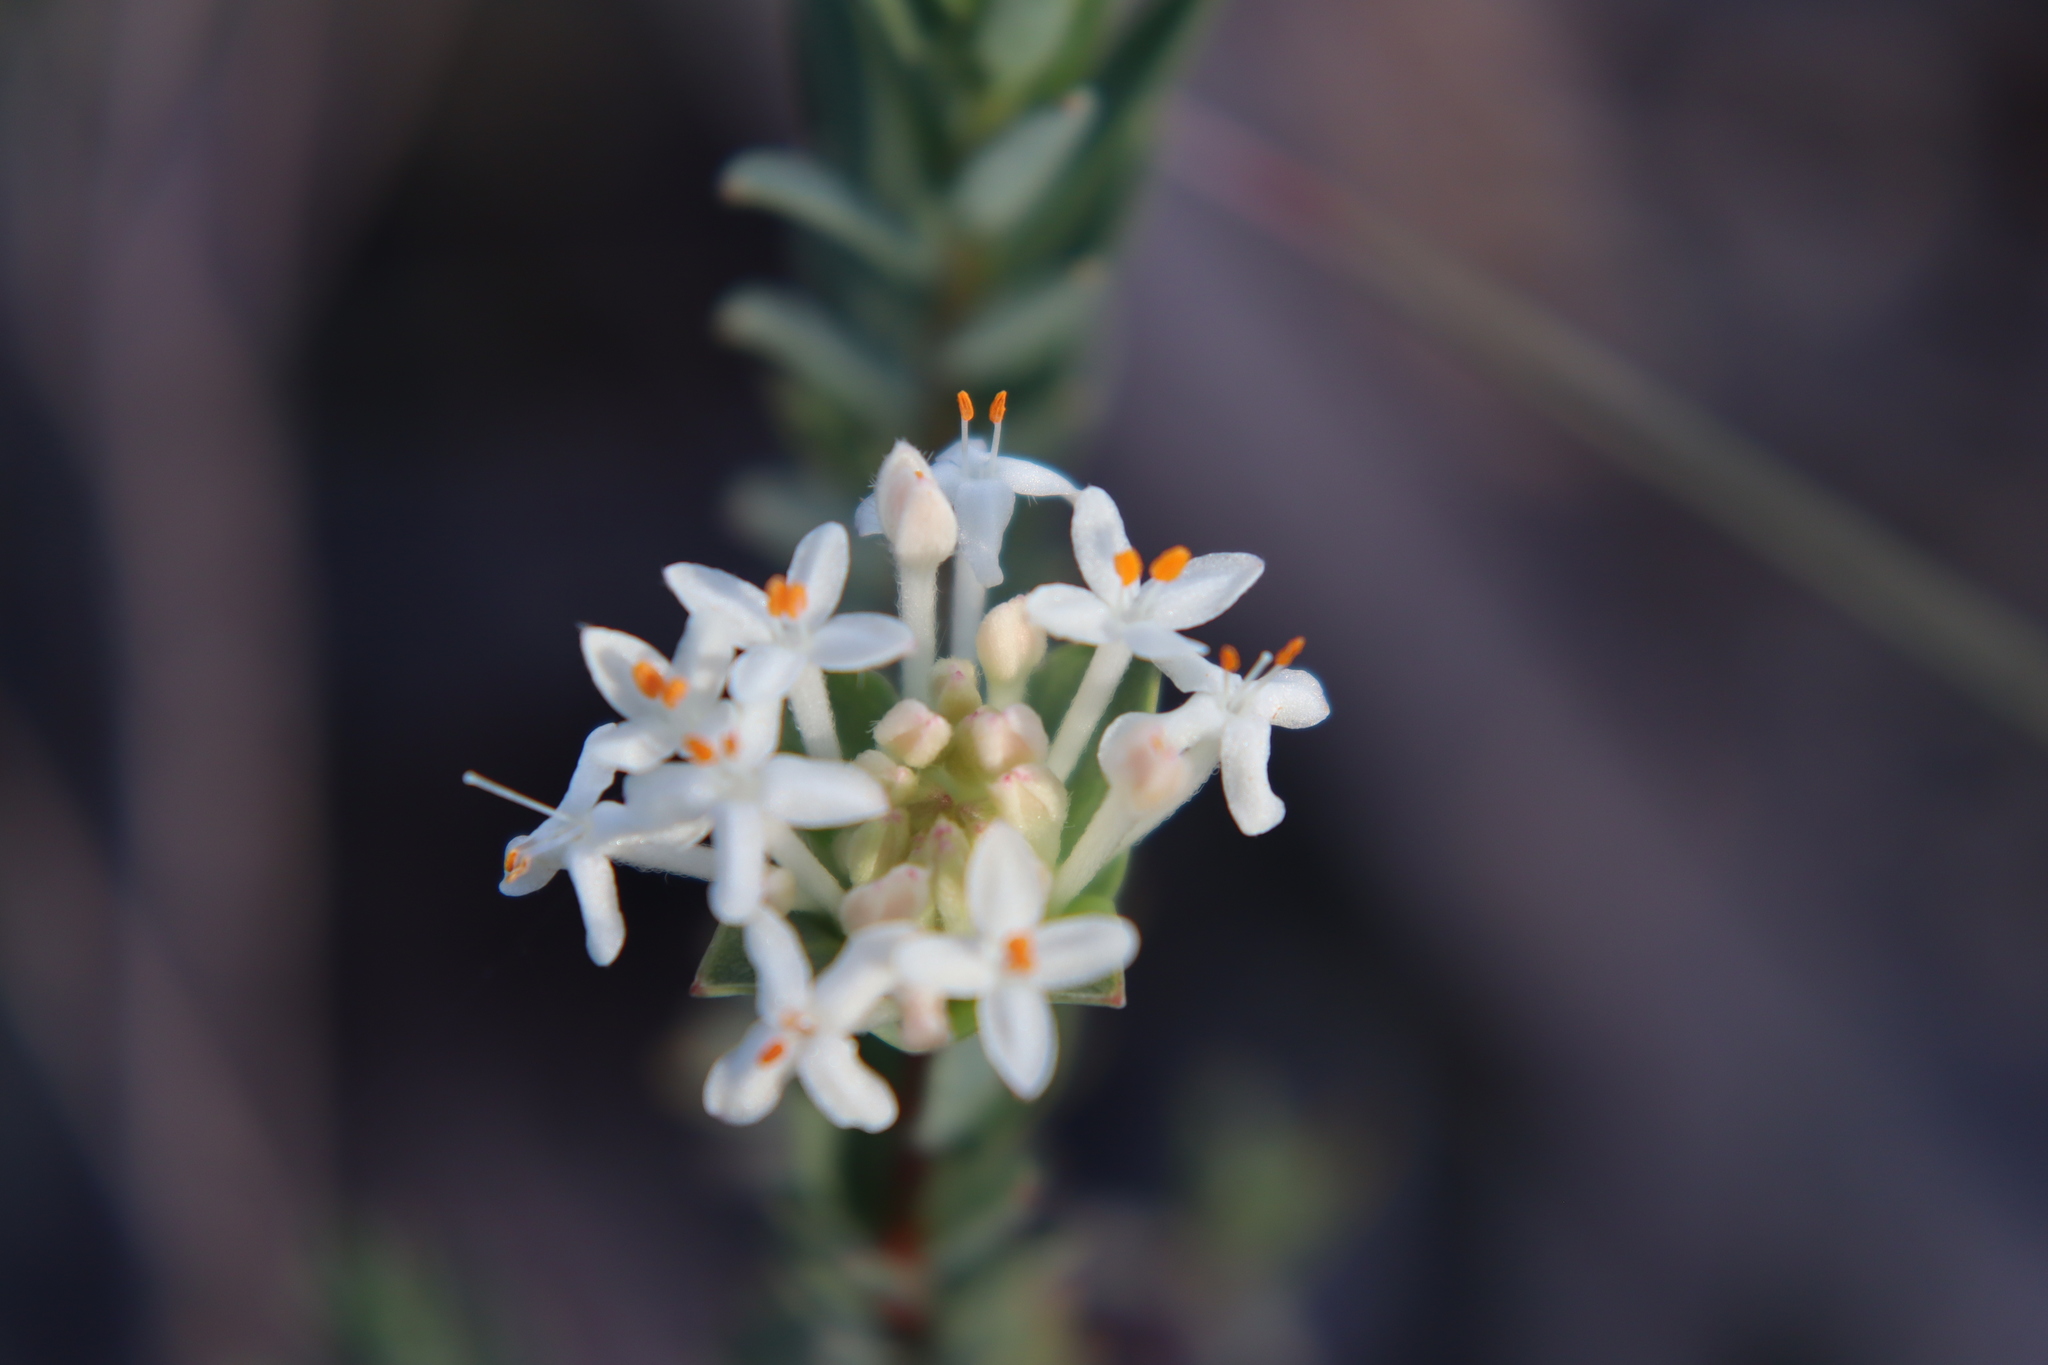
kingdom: Plantae
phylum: Tracheophyta
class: Magnoliopsida
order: Malvales
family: Thymelaeaceae
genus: Pimelea
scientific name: Pimelea humilis
